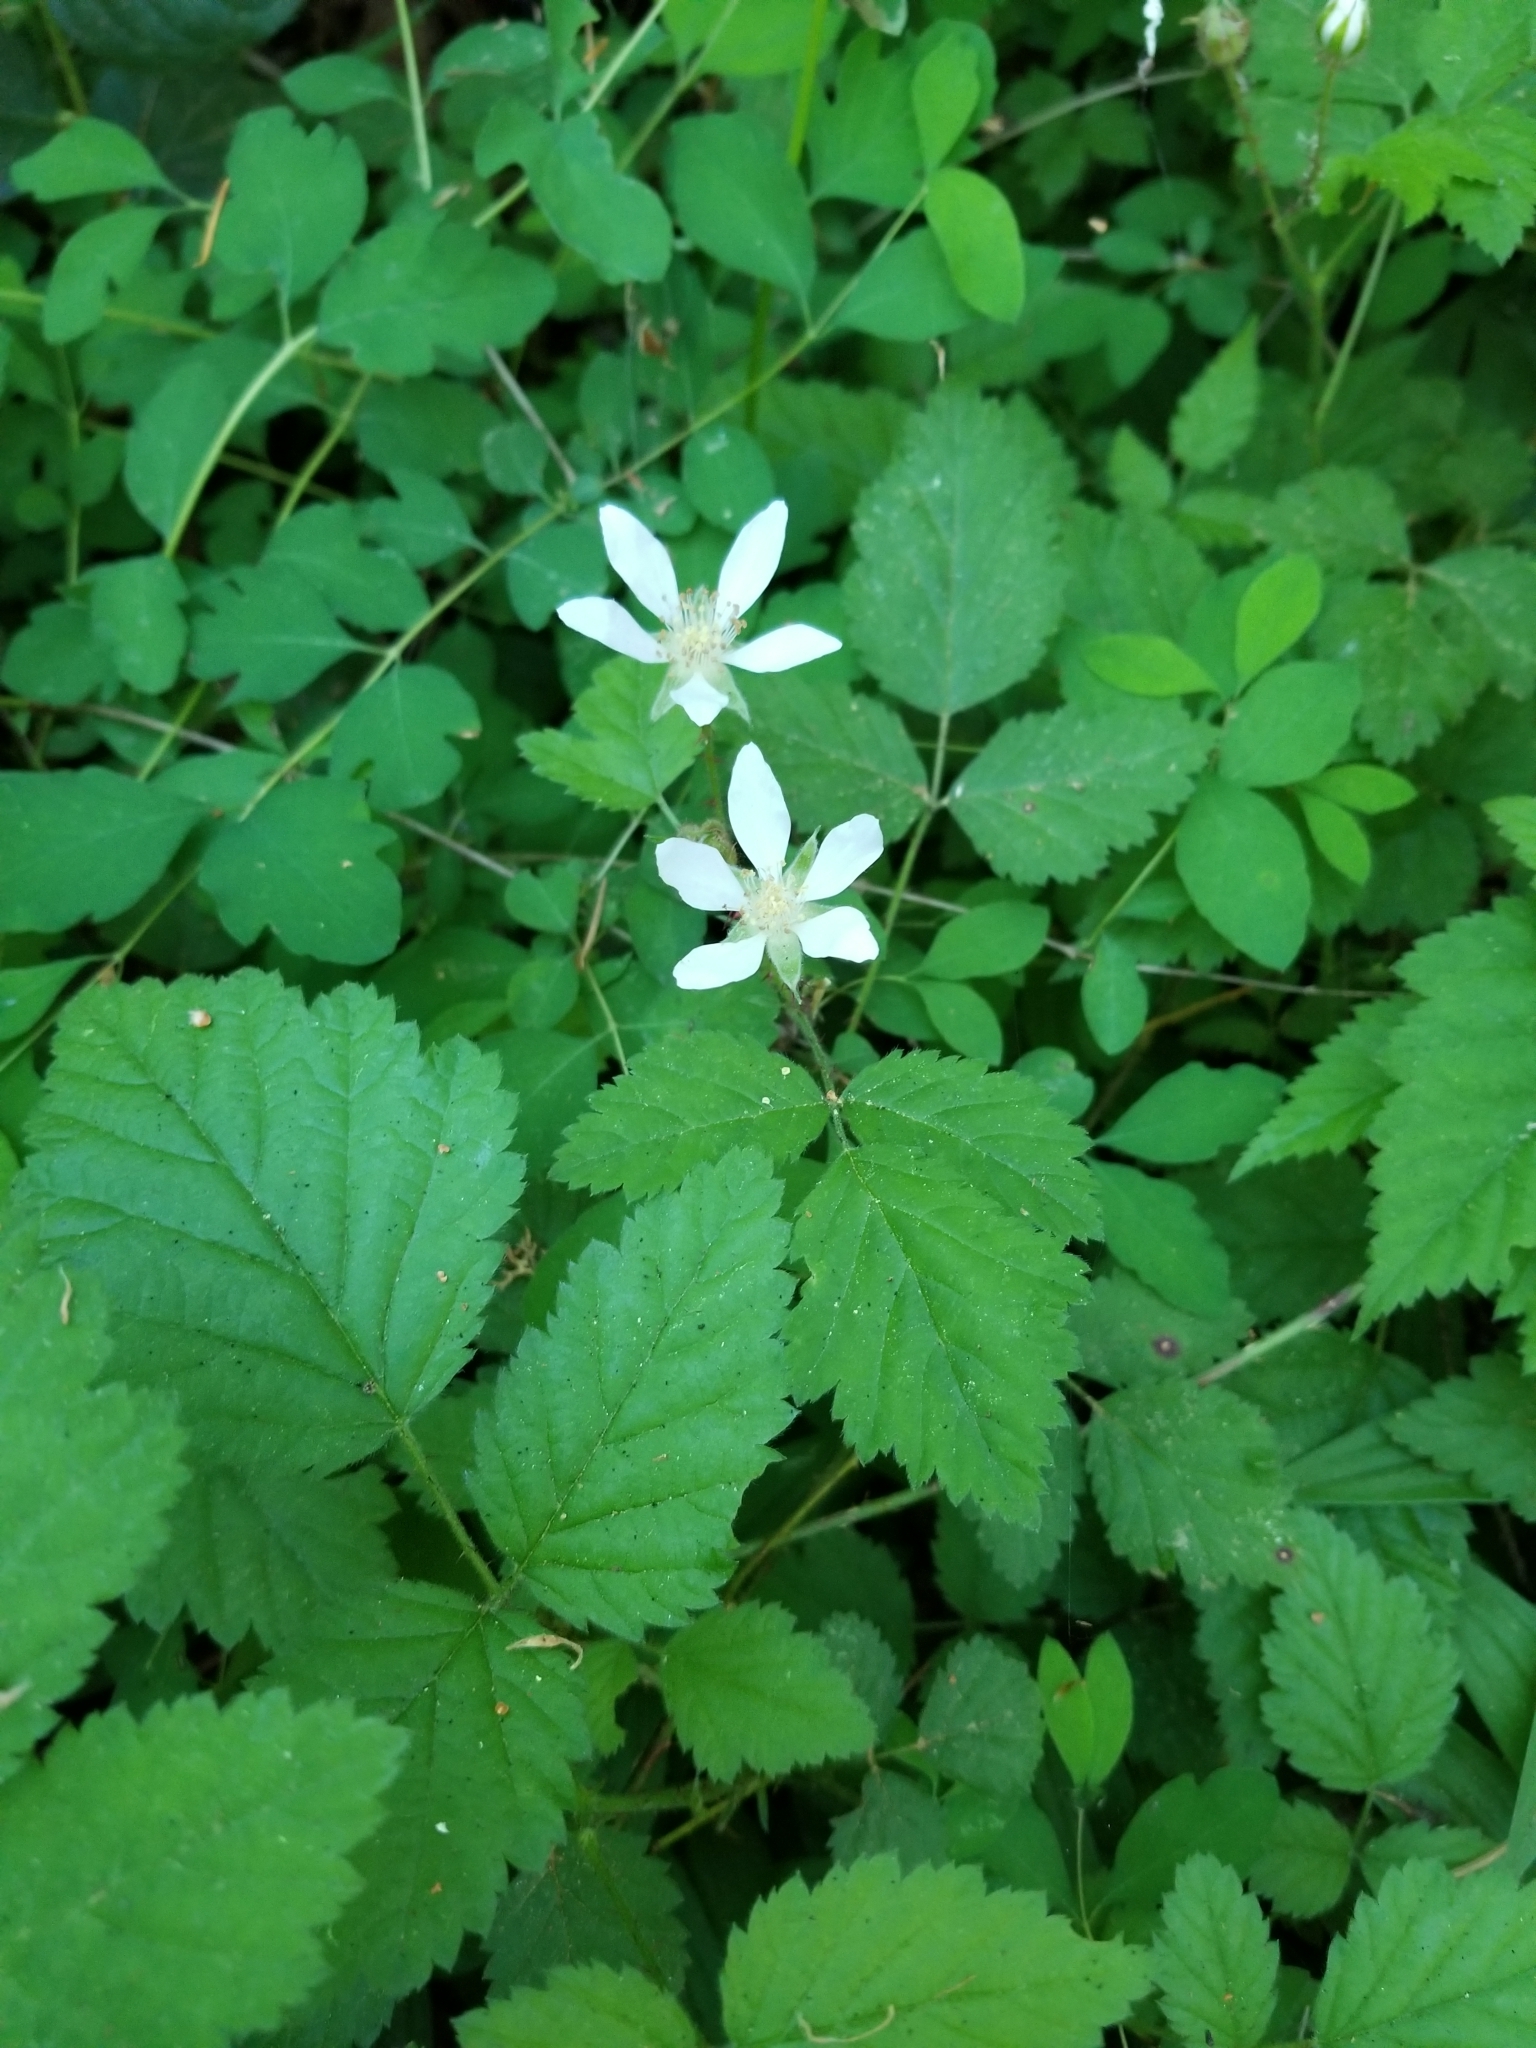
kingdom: Plantae
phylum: Tracheophyta
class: Magnoliopsida
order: Rosales
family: Rosaceae
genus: Rubus
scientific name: Rubus ursinus
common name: Pacific blackberry
